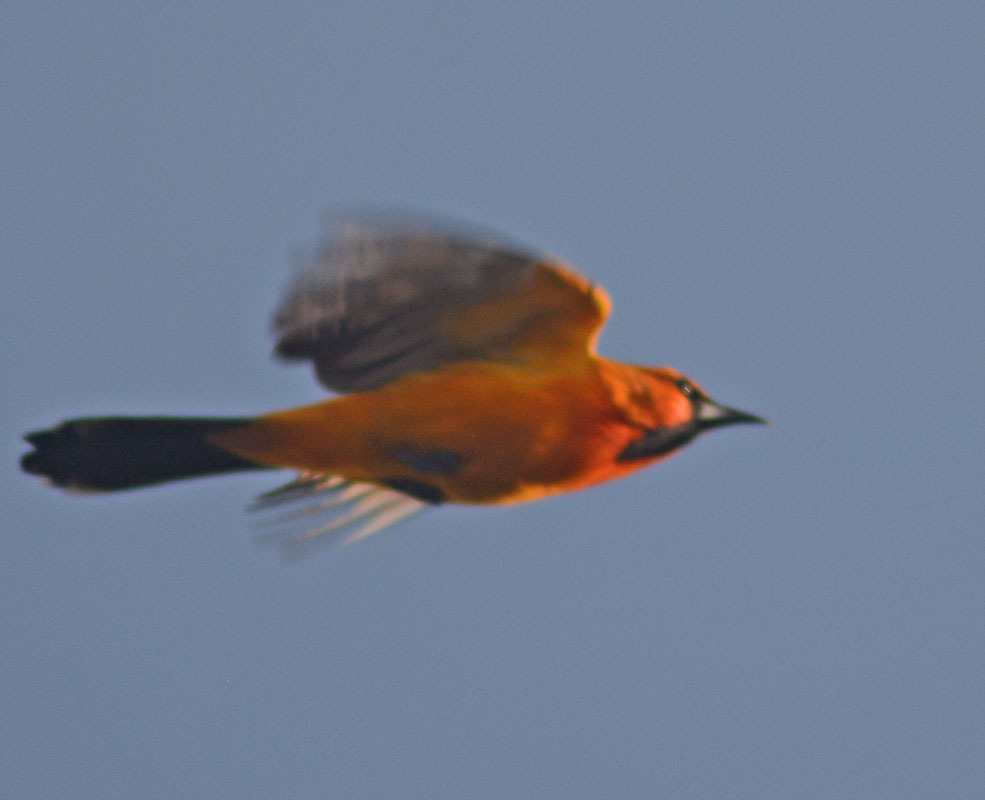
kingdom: Animalia
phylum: Chordata
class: Aves
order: Passeriformes
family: Icteridae
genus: Icterus
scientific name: Icterus pustulatus
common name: Streak-backed oriole
